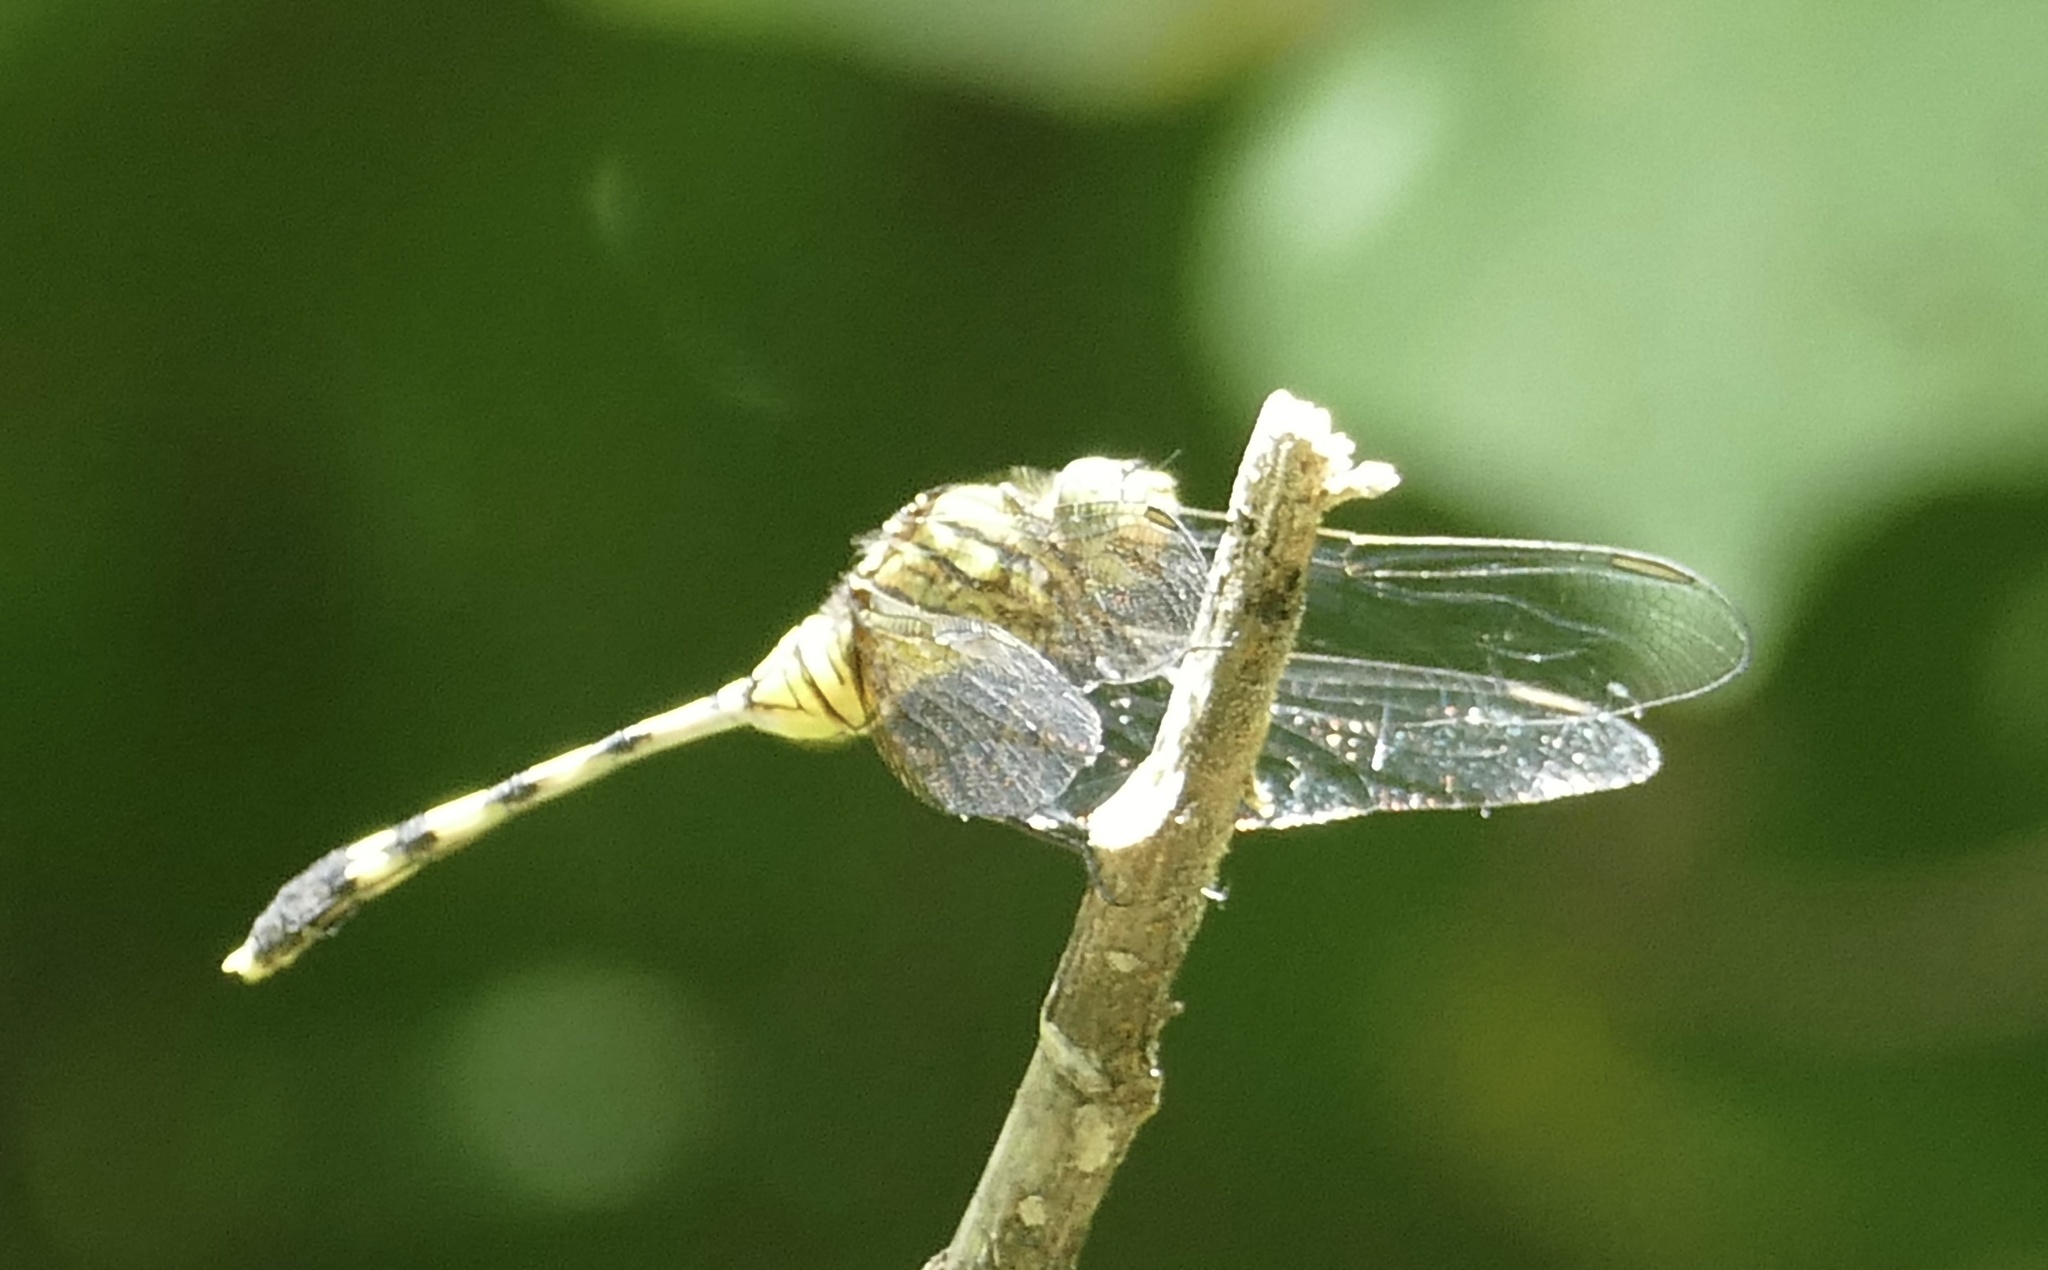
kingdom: Animalia
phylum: Arthropoda
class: Insecta
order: Odonata
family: Libellulidae
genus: Orthetrum
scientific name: Orthetrum serapia
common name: Green skimmer
